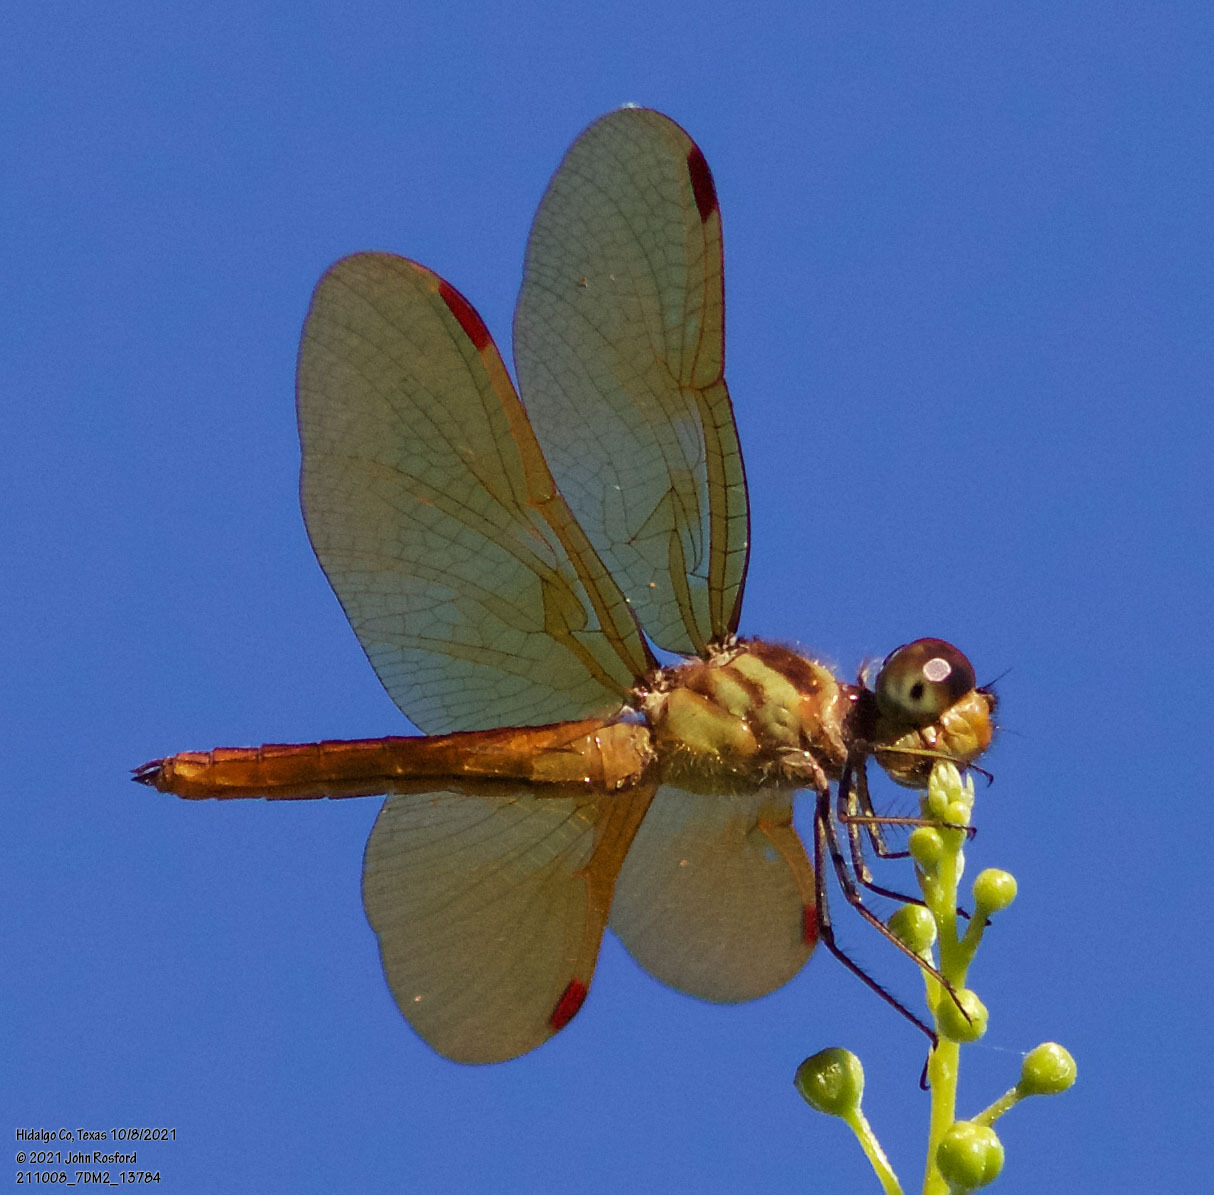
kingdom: Animalia
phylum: Arthropoda
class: Insecta
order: Odonata
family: Libellulidae
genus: Perithemis
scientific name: Perithemis domitia
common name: Slough amberwing
